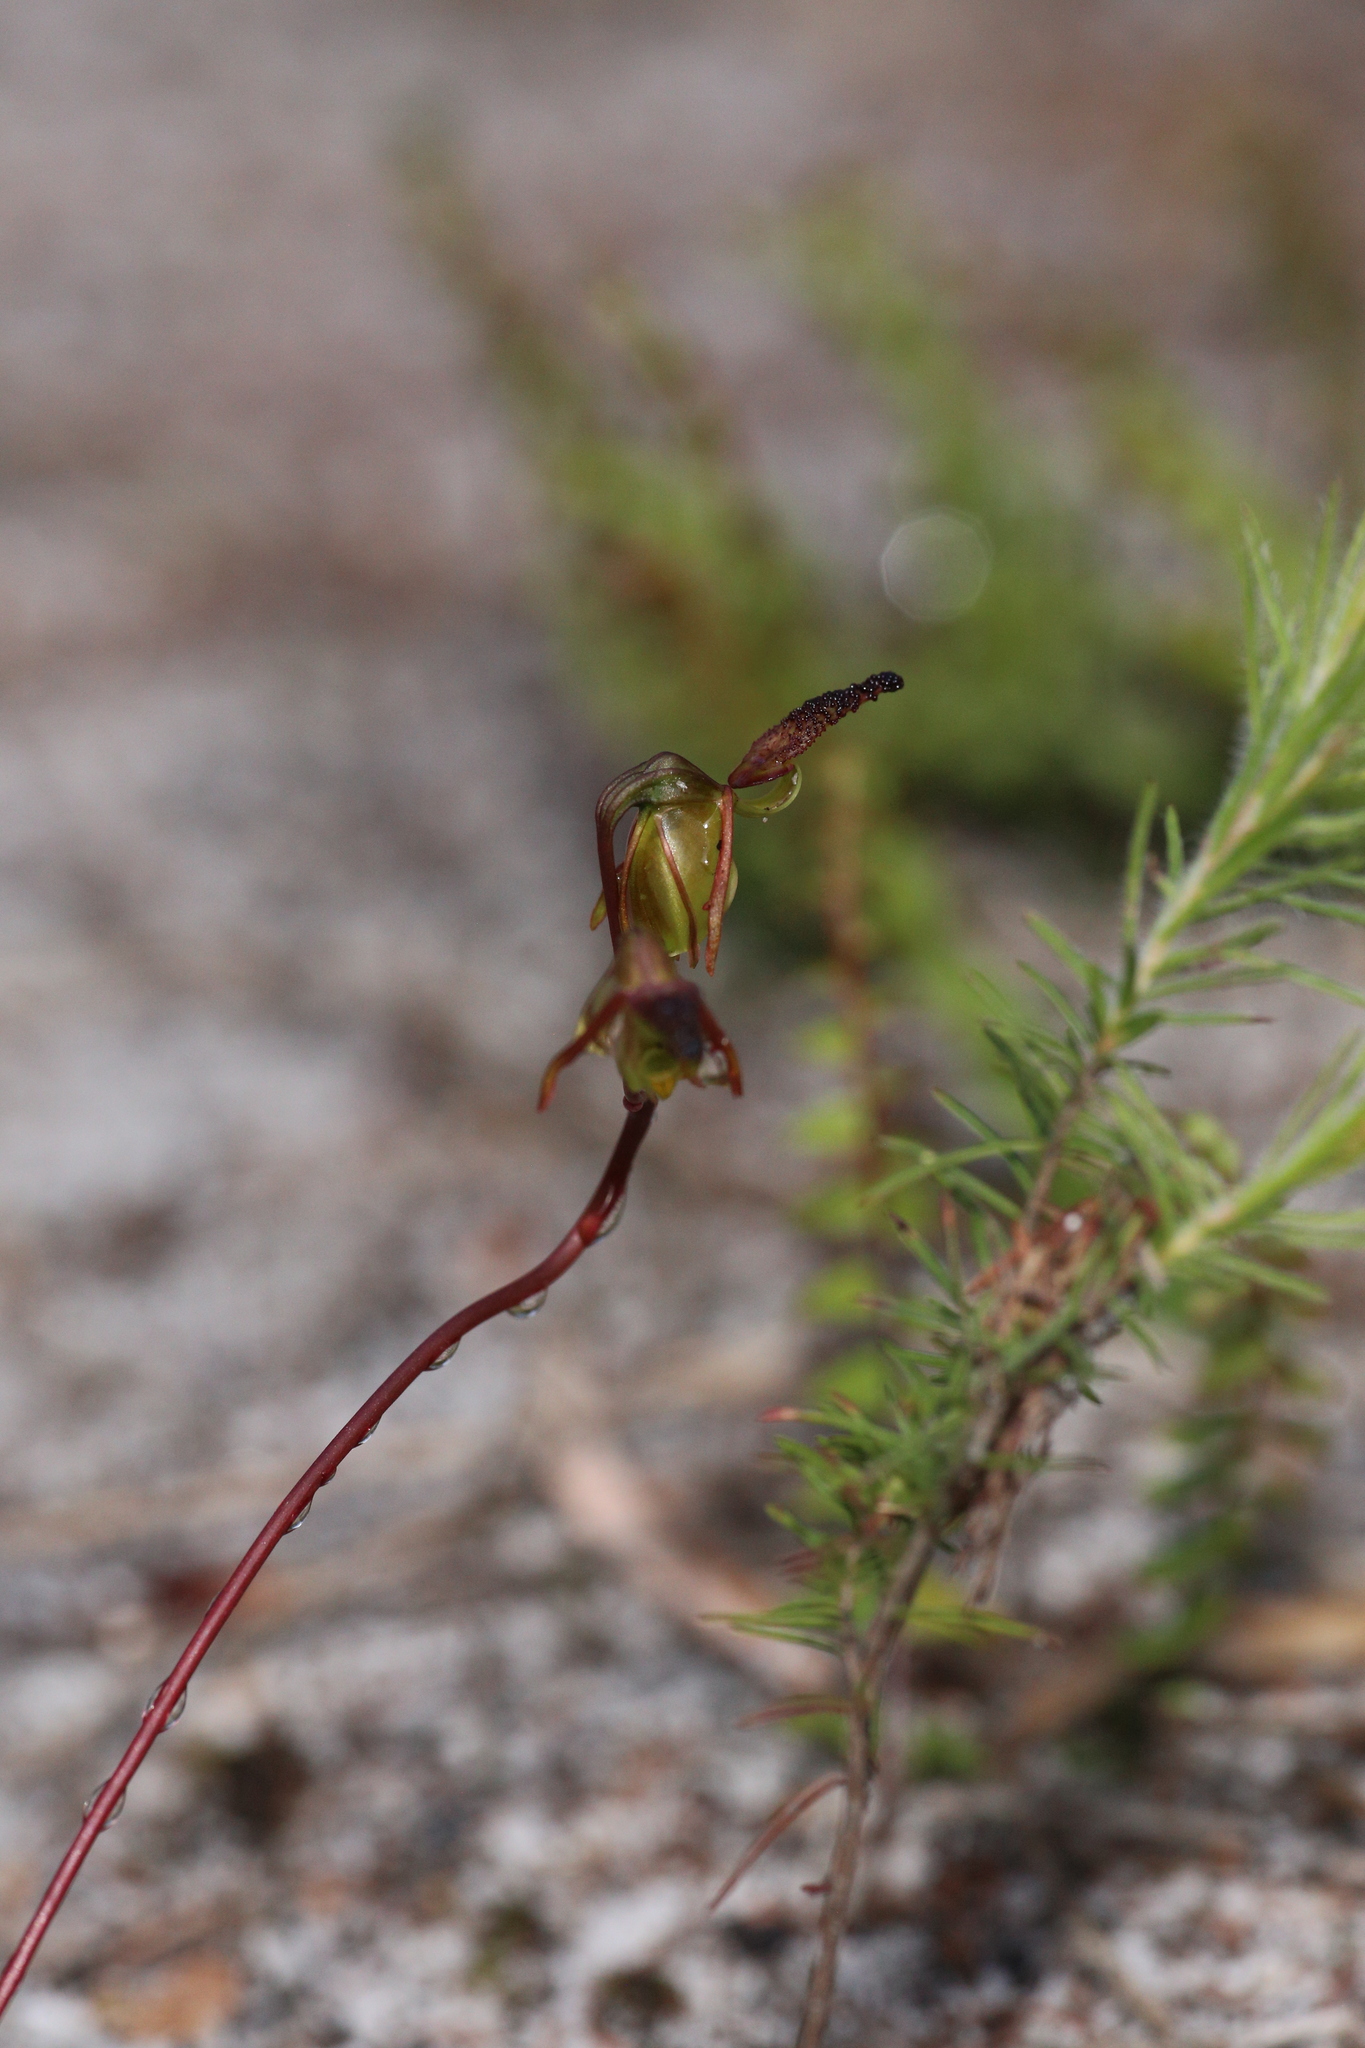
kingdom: Plantae
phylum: Tracheophyta
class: Liliopsida
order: Asparagales
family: Orchidaceae
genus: Caleana
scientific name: Caleana nigrita
